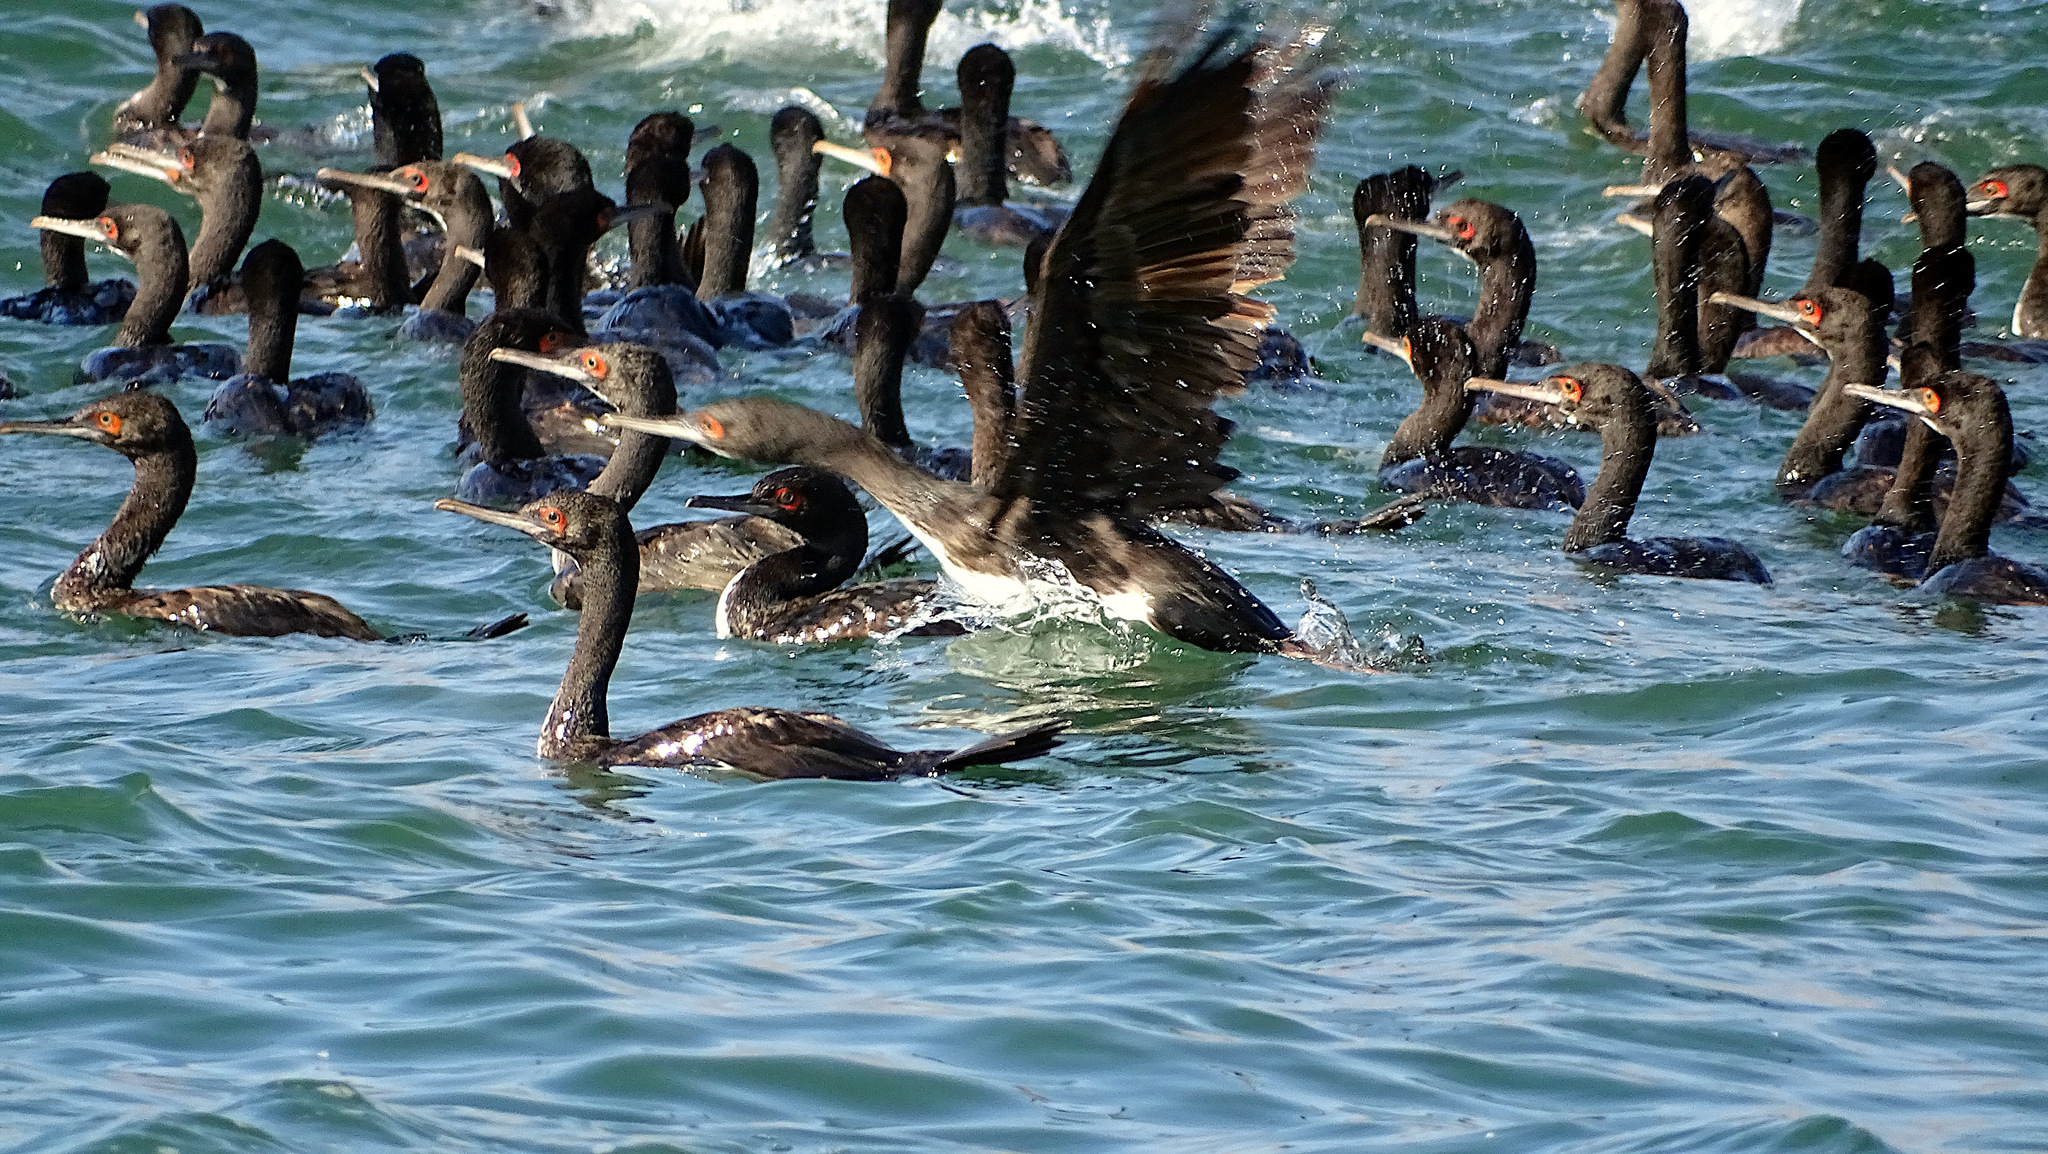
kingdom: Animalia
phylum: Chordata
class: Aves
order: Suliformes
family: Phalacrocoracidae
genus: Leucocarbo
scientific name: Leucocarbo bougainvillii
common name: Guanay cormorant
